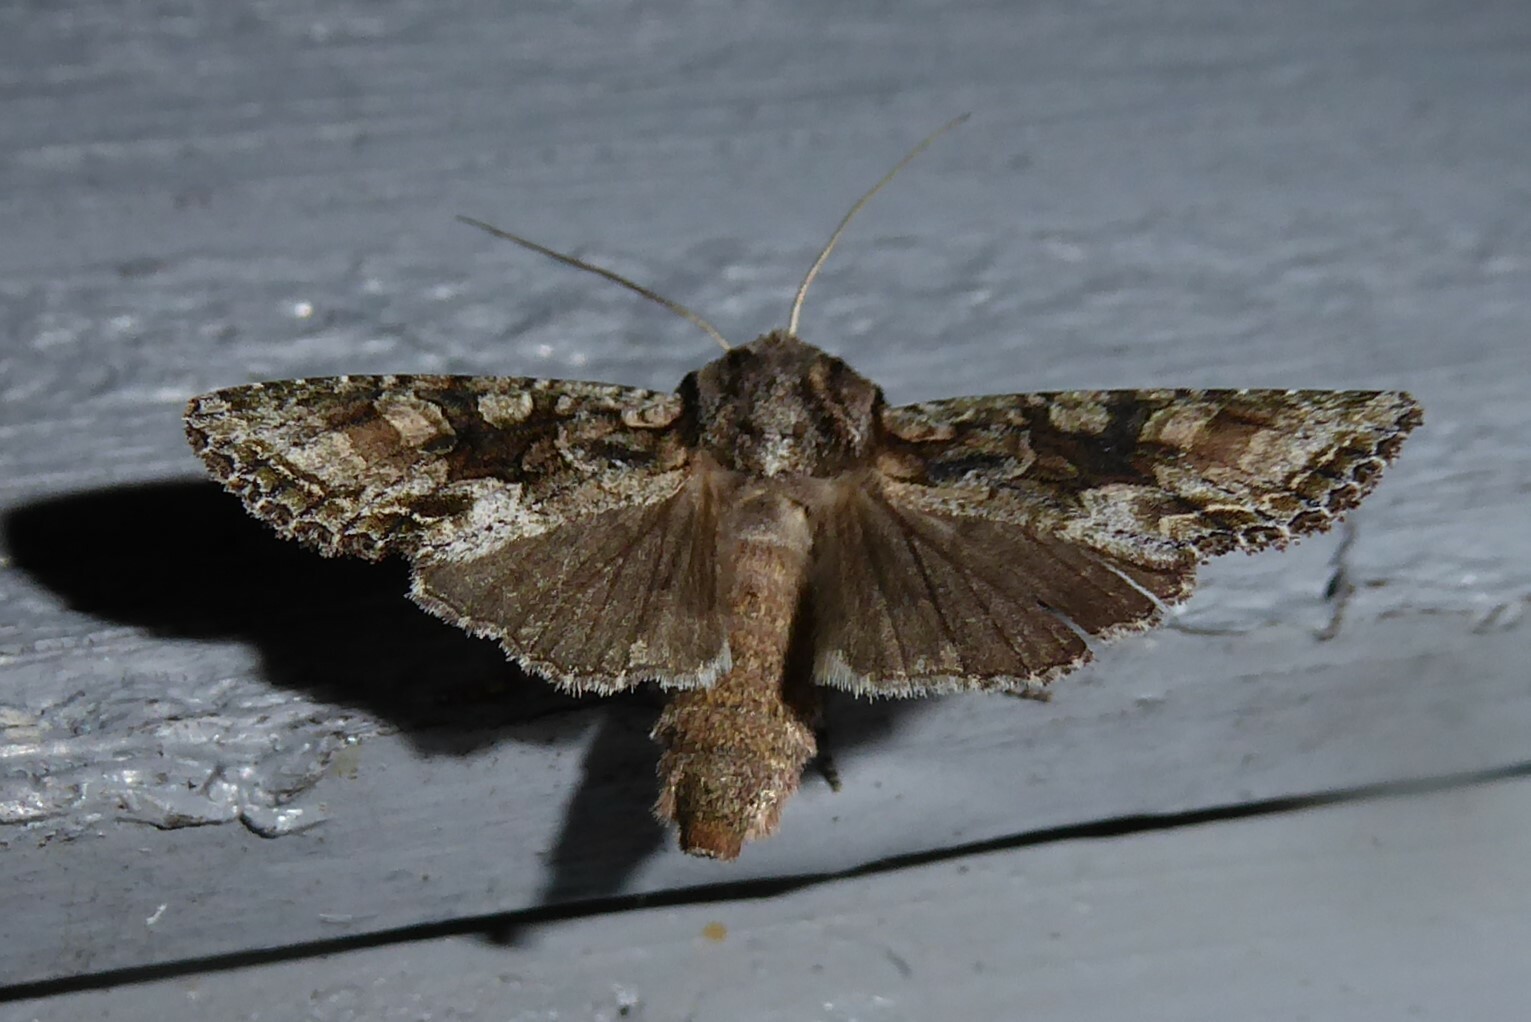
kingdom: Animalia
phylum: Arthropoda
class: Insecta
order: Lepidoptera
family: Noctuidae
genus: Ichneutica
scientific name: Ichneutica mutans
